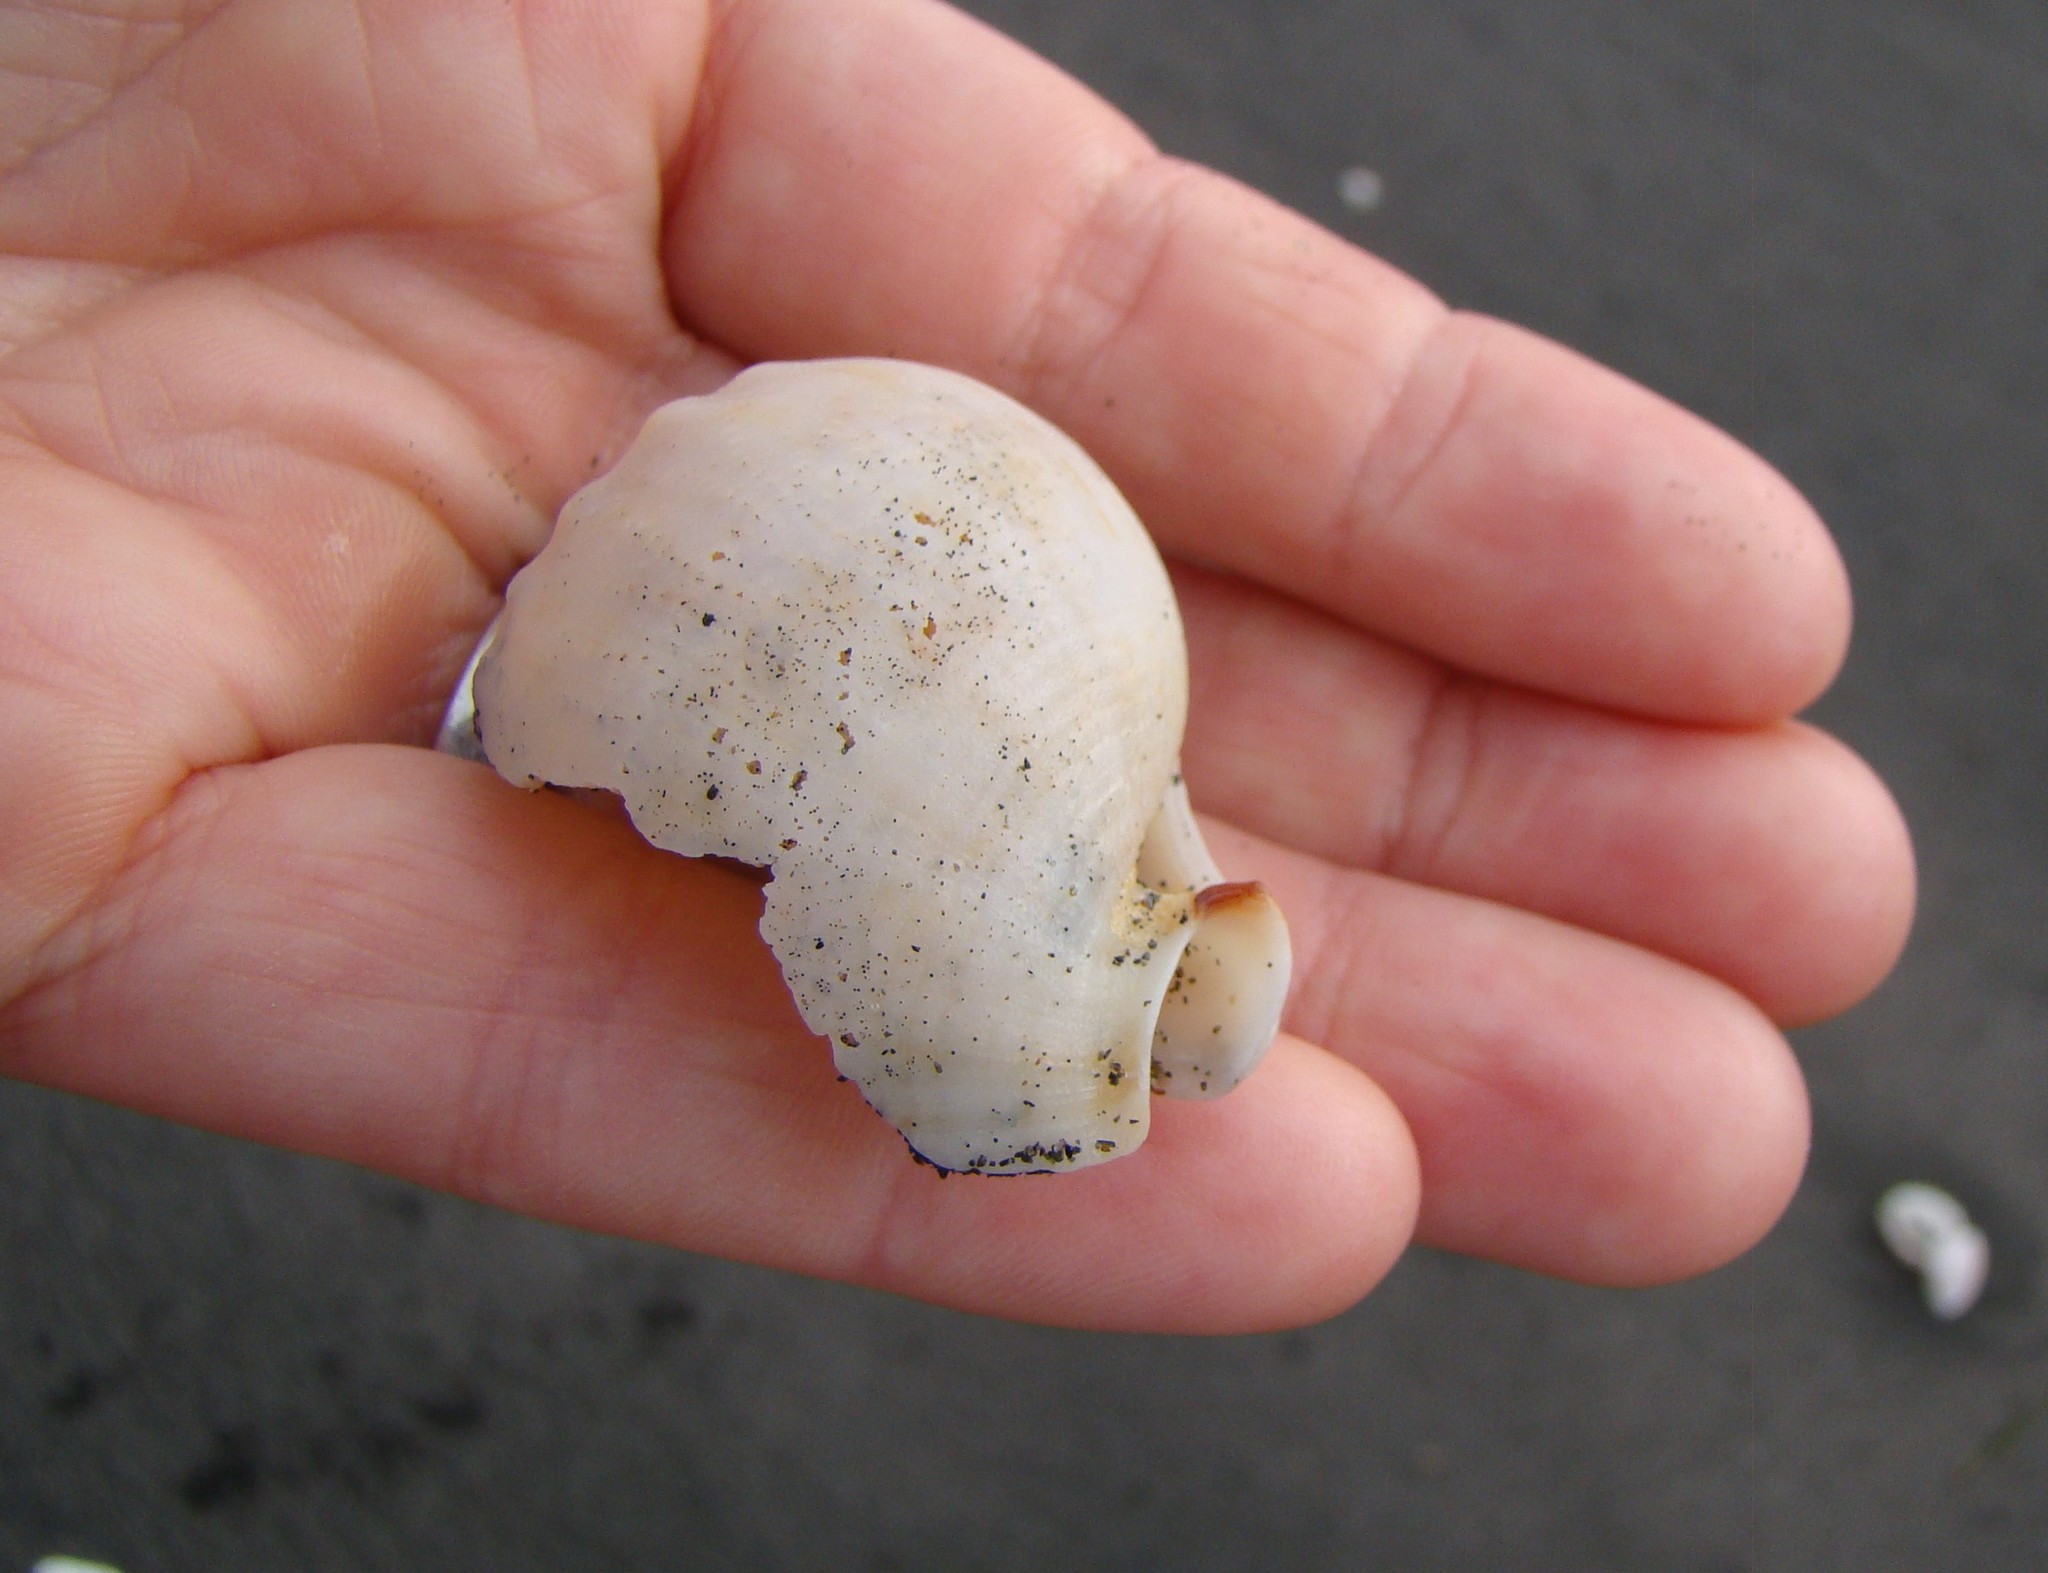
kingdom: Animalia
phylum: Mollusca
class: Gastropoda
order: Littorinimorpha
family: Cassidae
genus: Semicassis
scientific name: Semicassis pyrum
